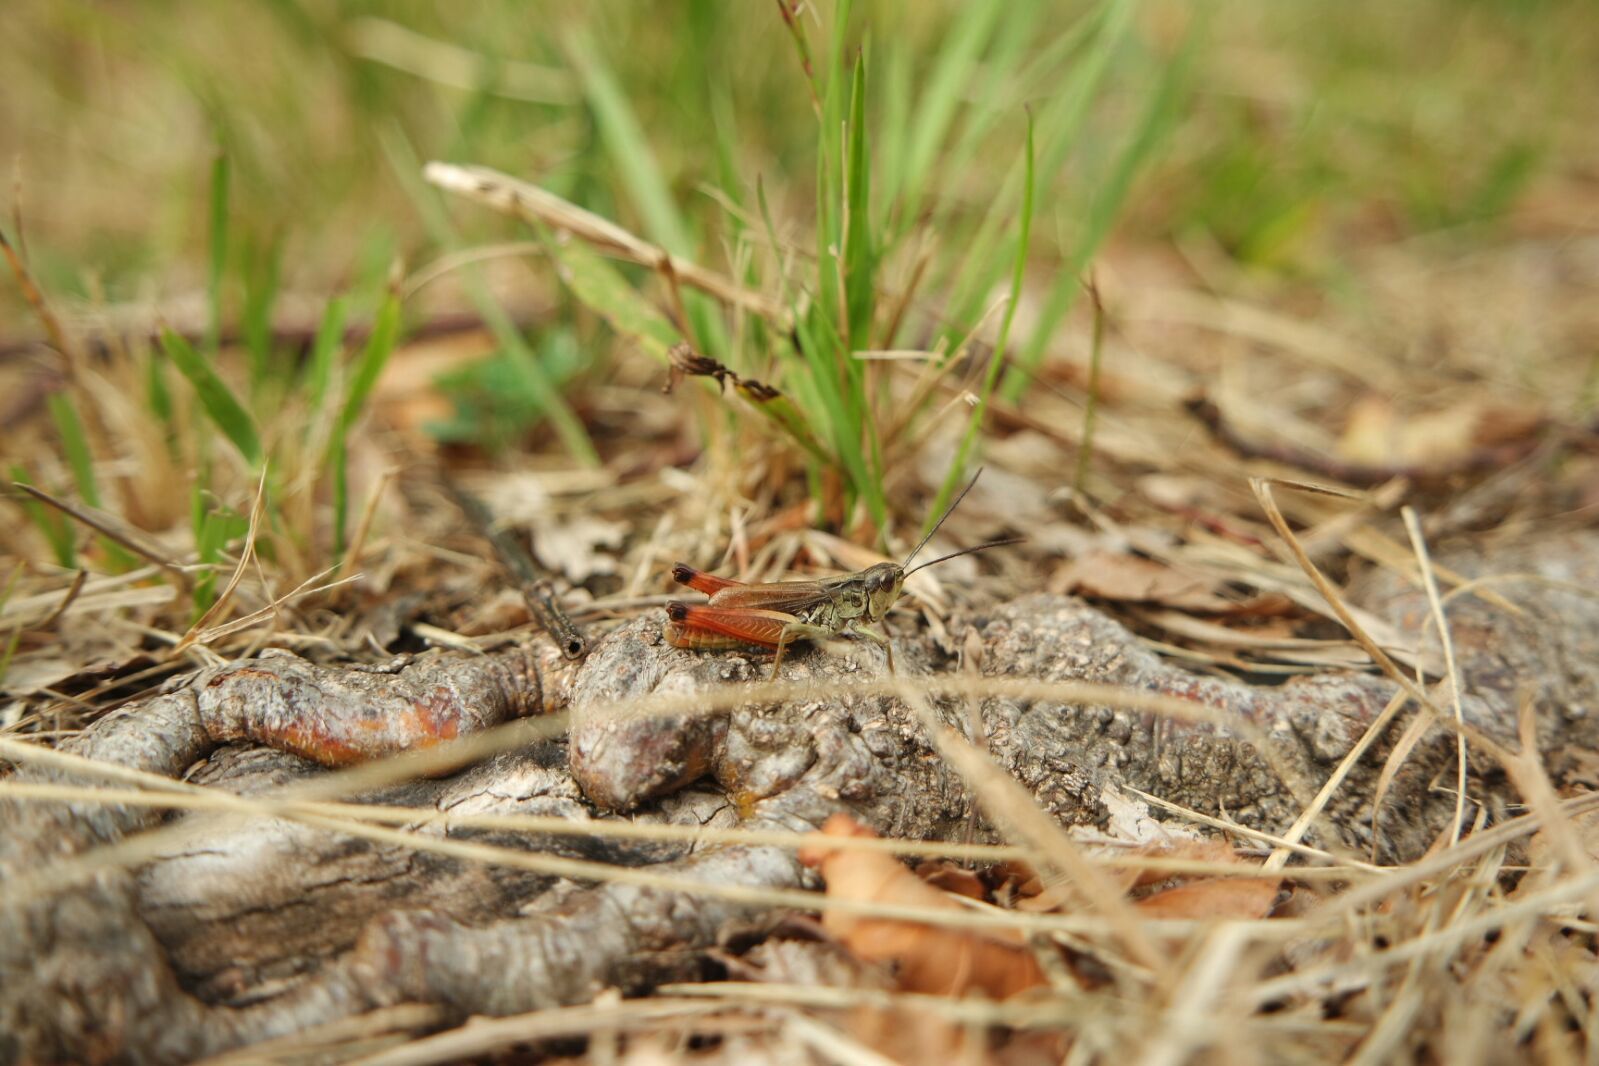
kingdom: Animalia
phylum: Arthropoda
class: Insecta
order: Orthoptera
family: Acrididae
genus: Chorthippus
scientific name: Chorthippus alticola
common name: Alpine grasshopper
